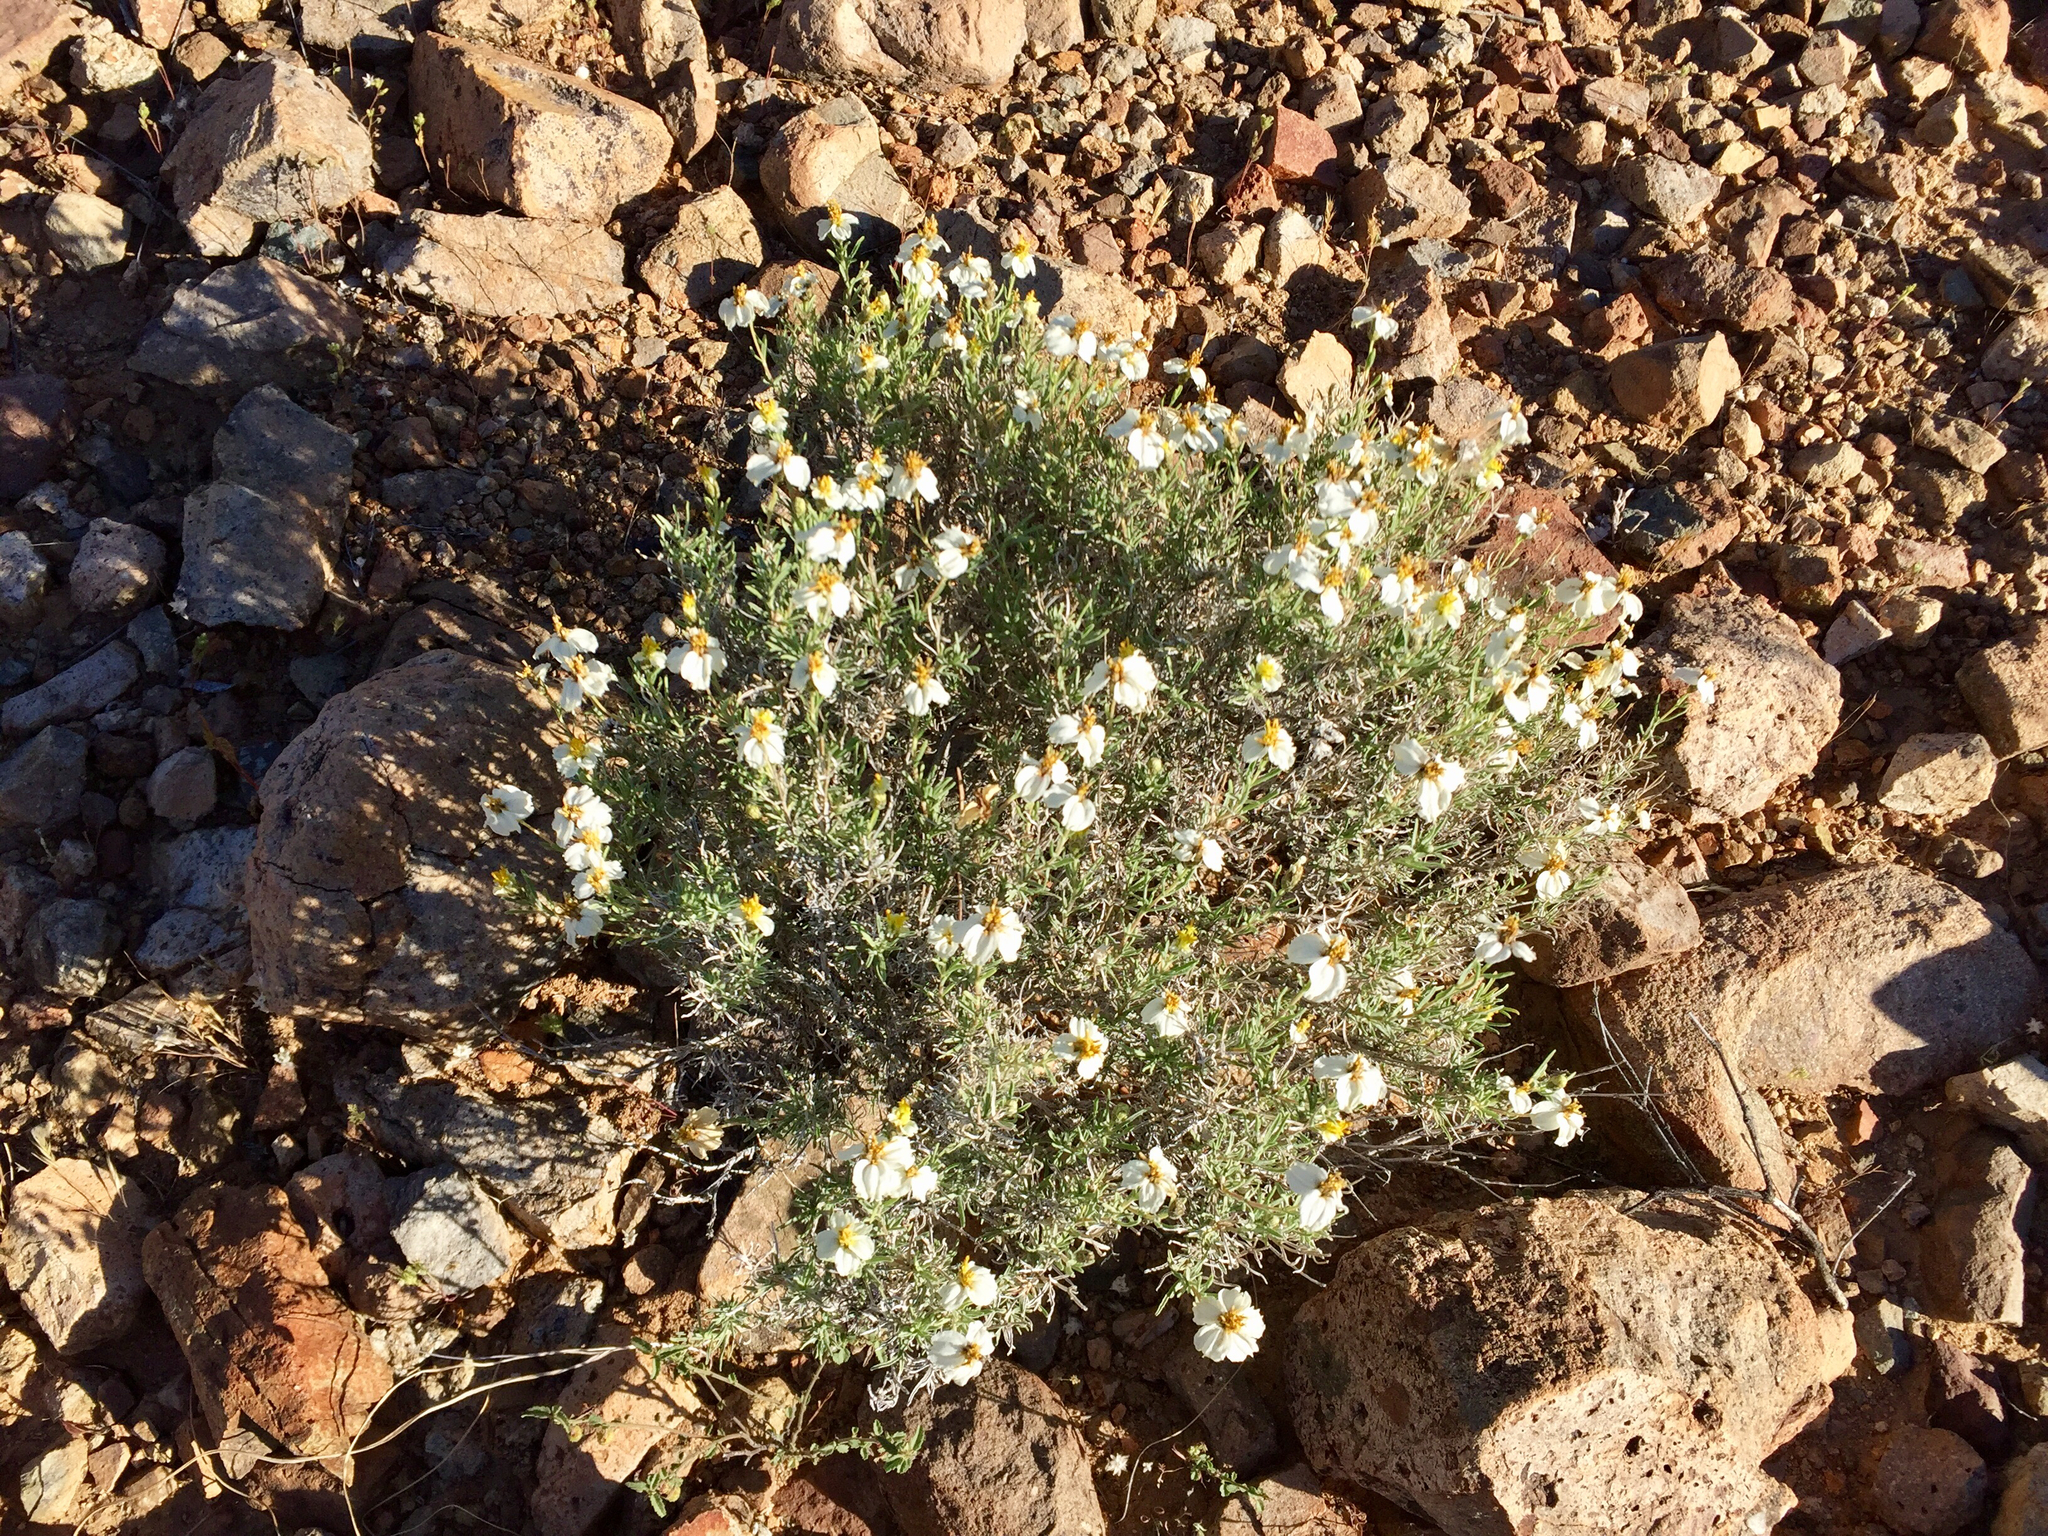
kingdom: Plantae
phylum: Tracheophyta
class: Magnoliopsida
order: Asterales
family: Asteraceae
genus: Zinnia
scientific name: Zinnia acerosa
